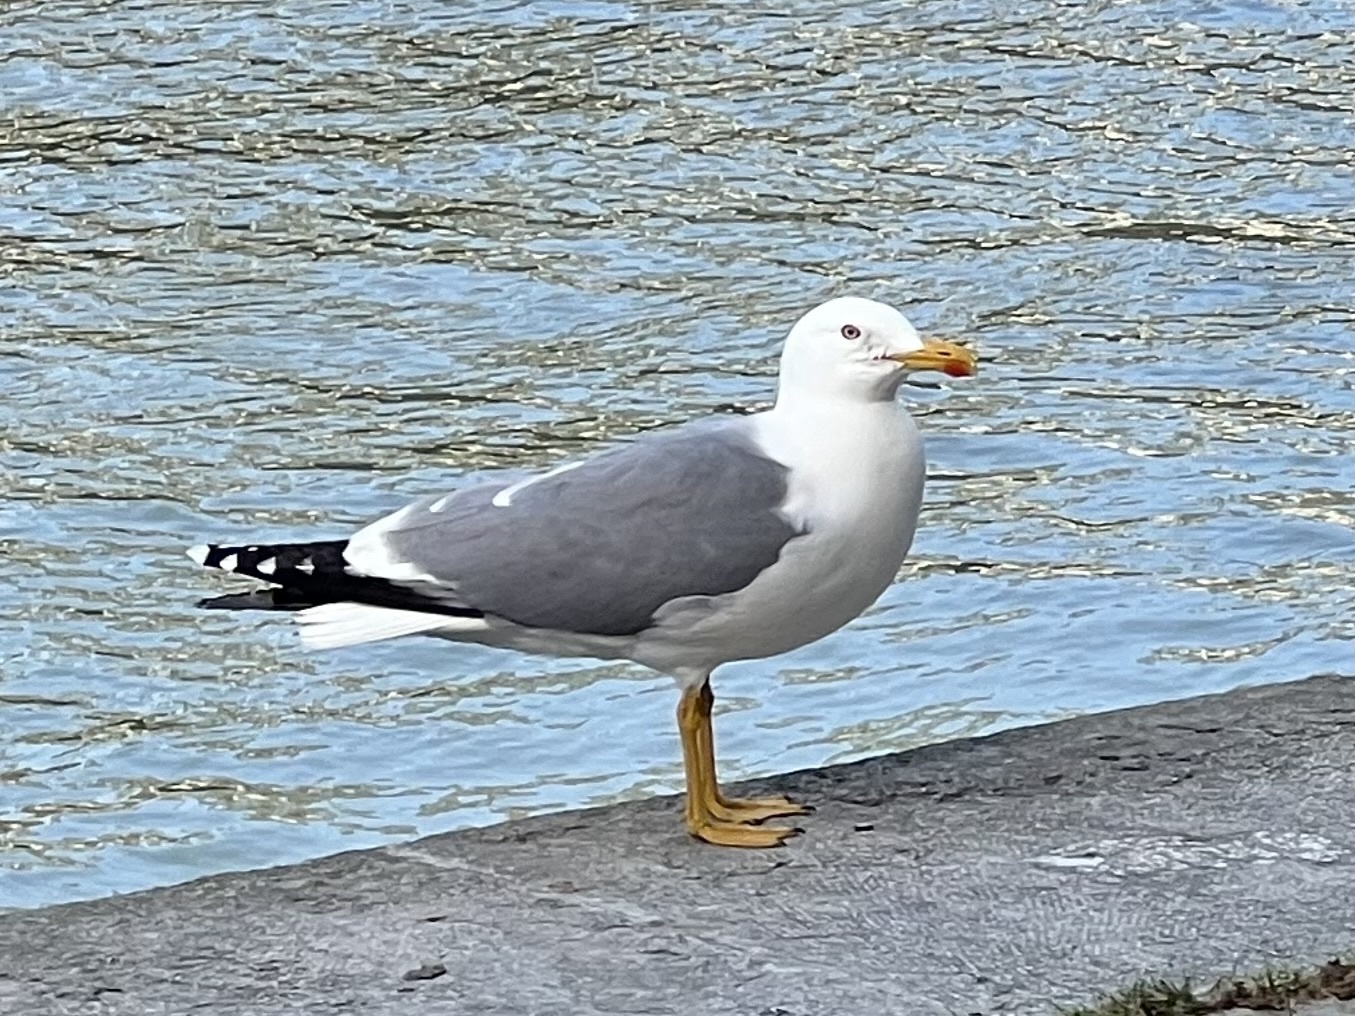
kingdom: Animalia
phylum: Chordata
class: Aves
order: Charadriiformes
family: Laridae
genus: Larus
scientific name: Larus michahellis
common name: Yellow-legged gull
